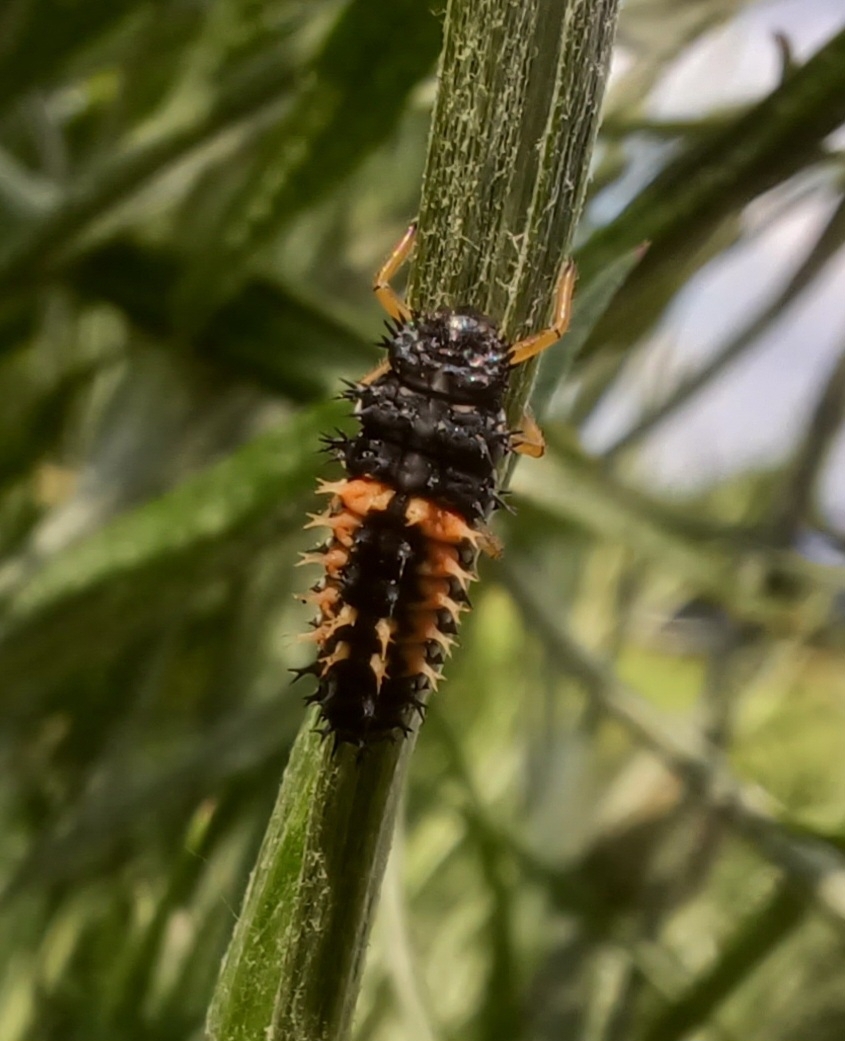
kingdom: Animalia
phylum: Arthropoda
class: Insecta
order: Coleoptera
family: Coccinellidae
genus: Harmonia
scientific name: Harmonia axyridis
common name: Harlequin ladybird
